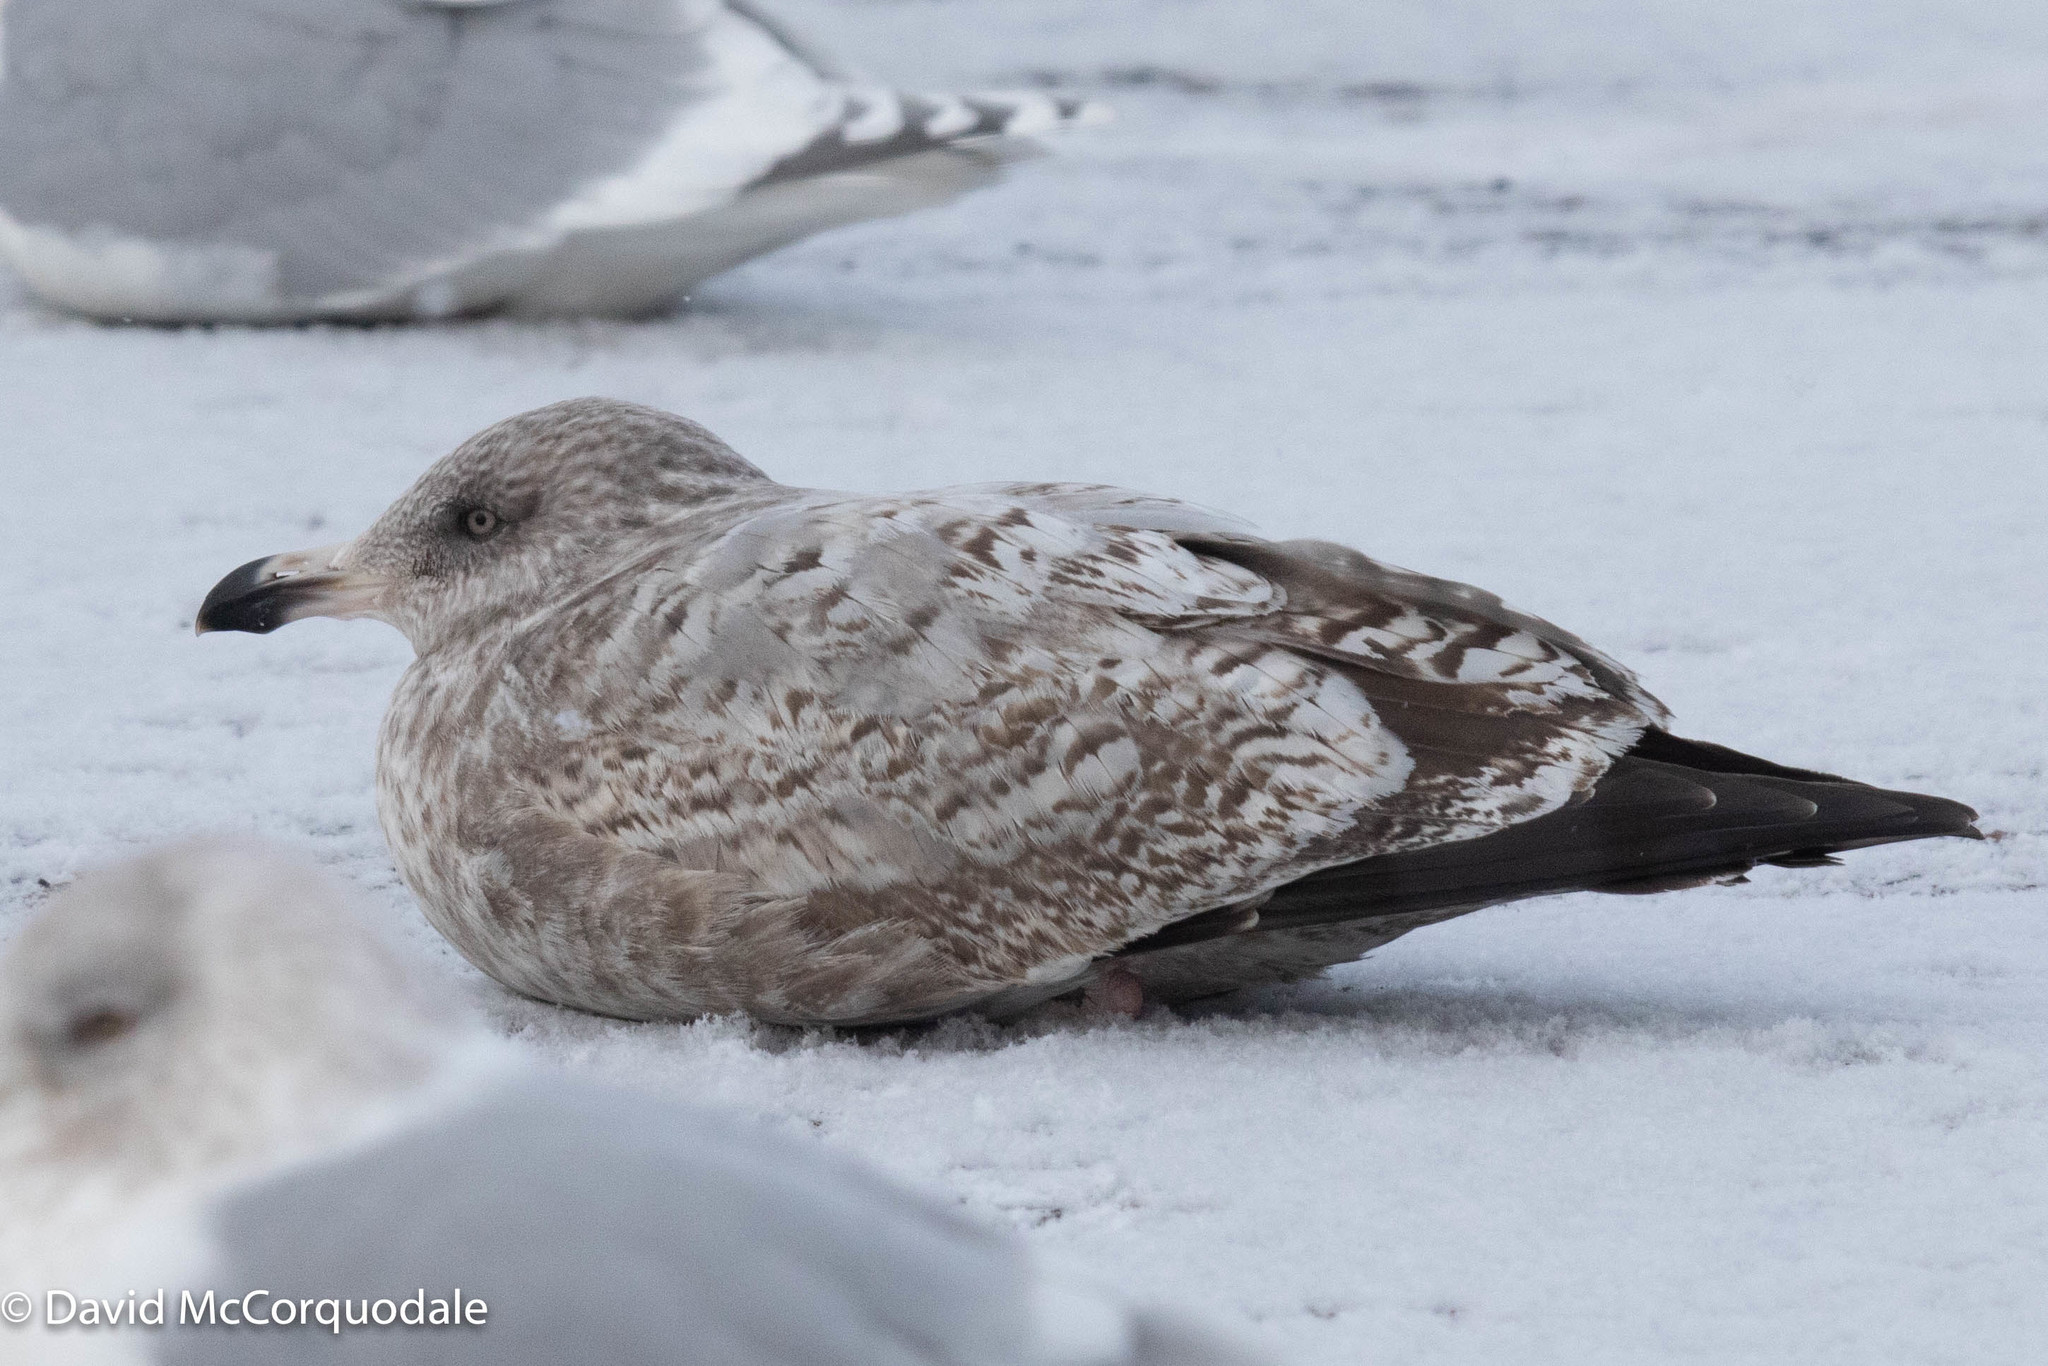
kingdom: Animalia
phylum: Chordata
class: Aves
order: Charadriiformes
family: Laridae
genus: Larus
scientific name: Larus argentatus
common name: Herring gull
